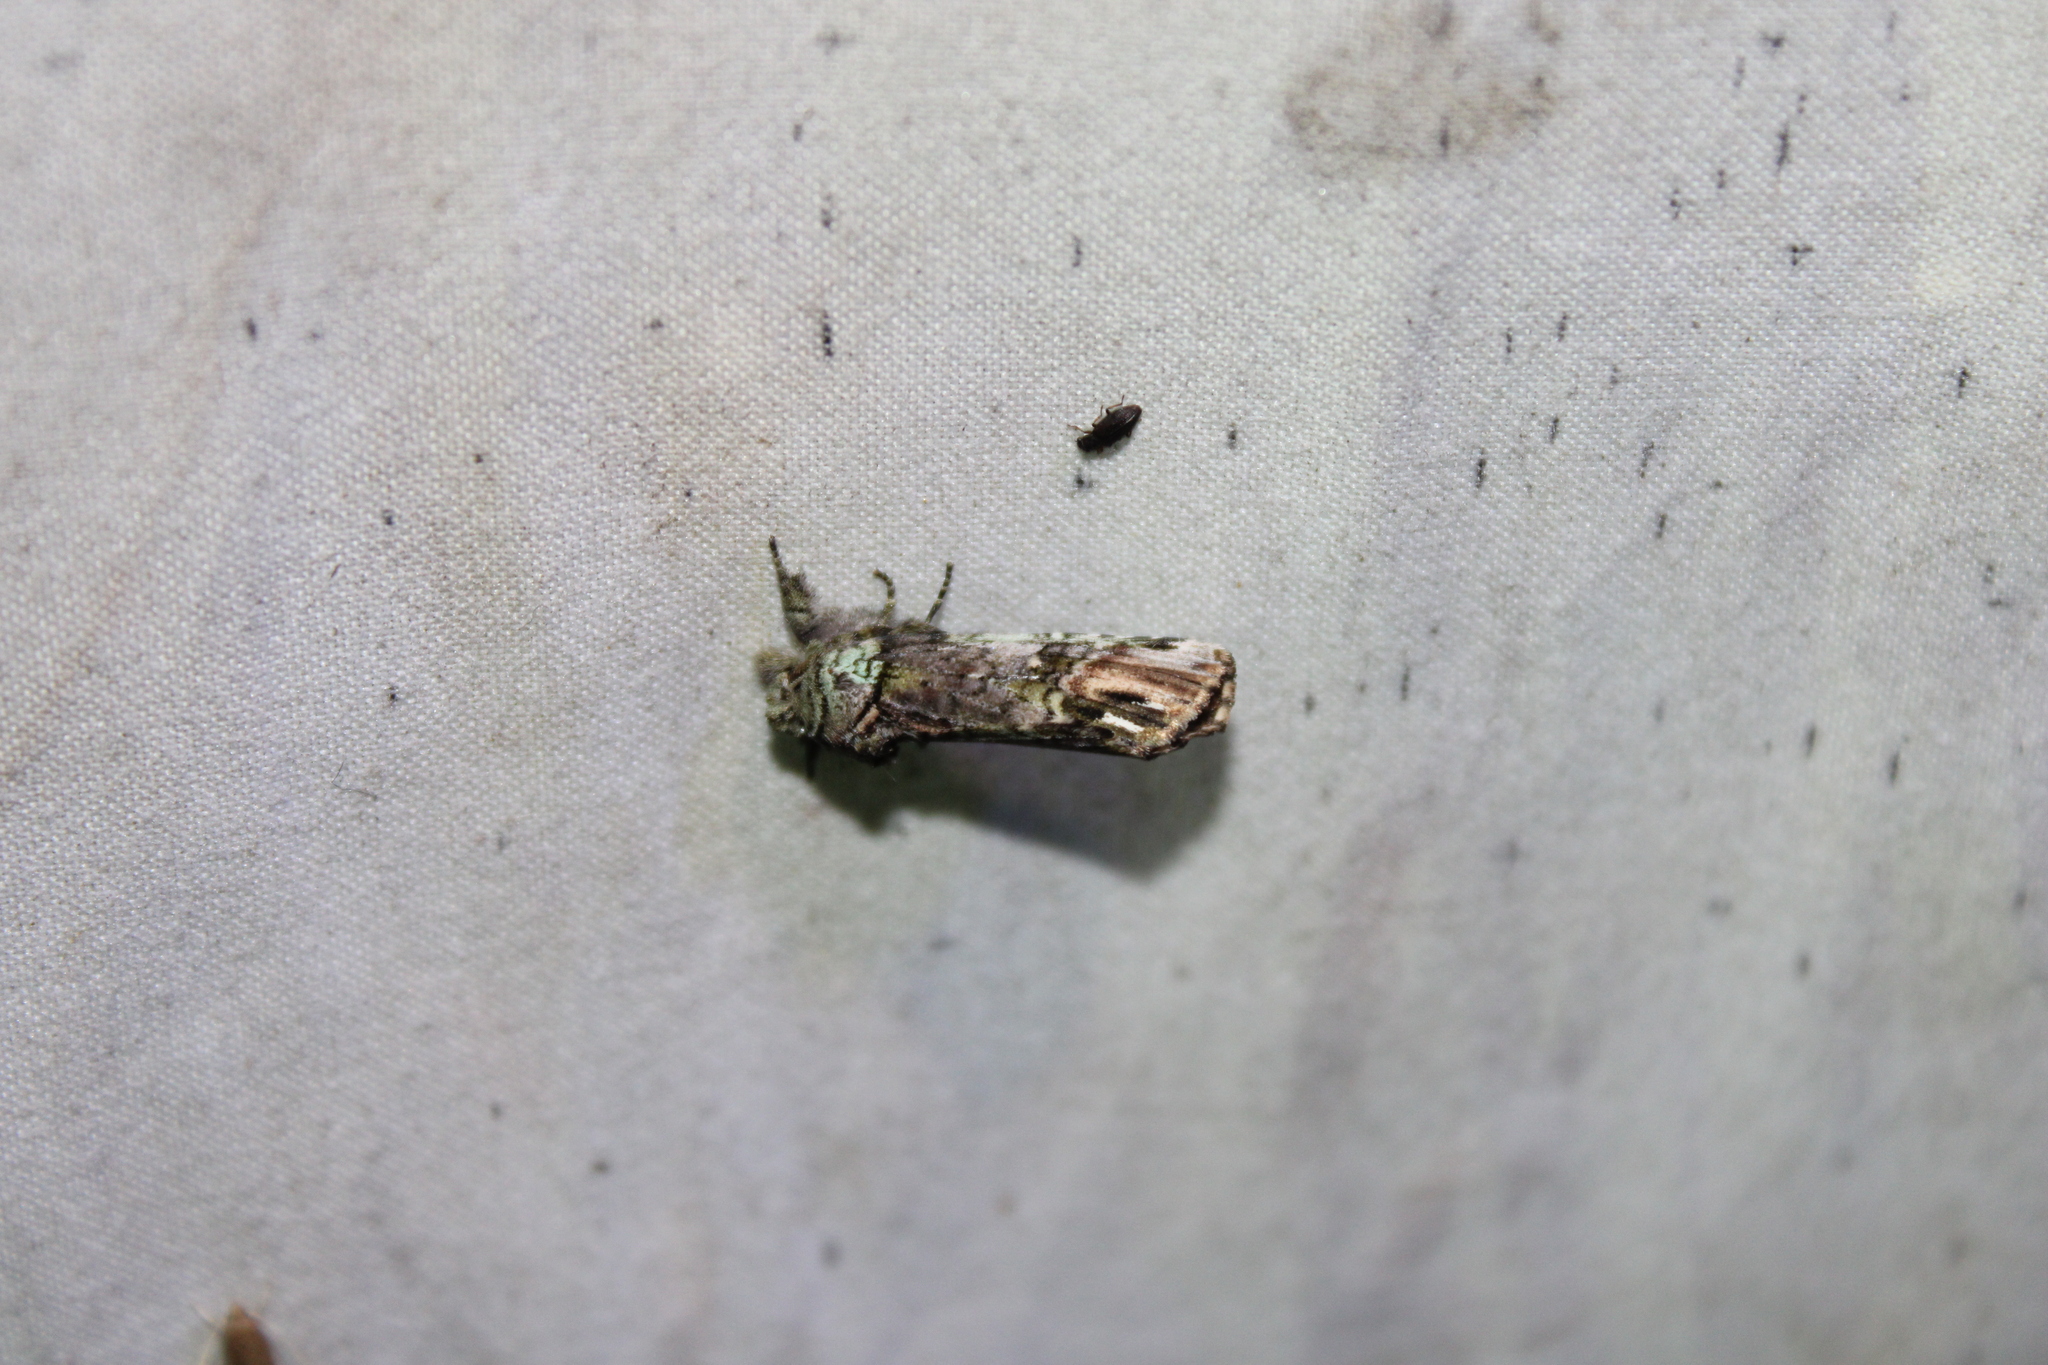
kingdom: Animalia
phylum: Arthropoda
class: Insecta
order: Lepidoptera
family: Notodontidae
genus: Schizura
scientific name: Schizura
